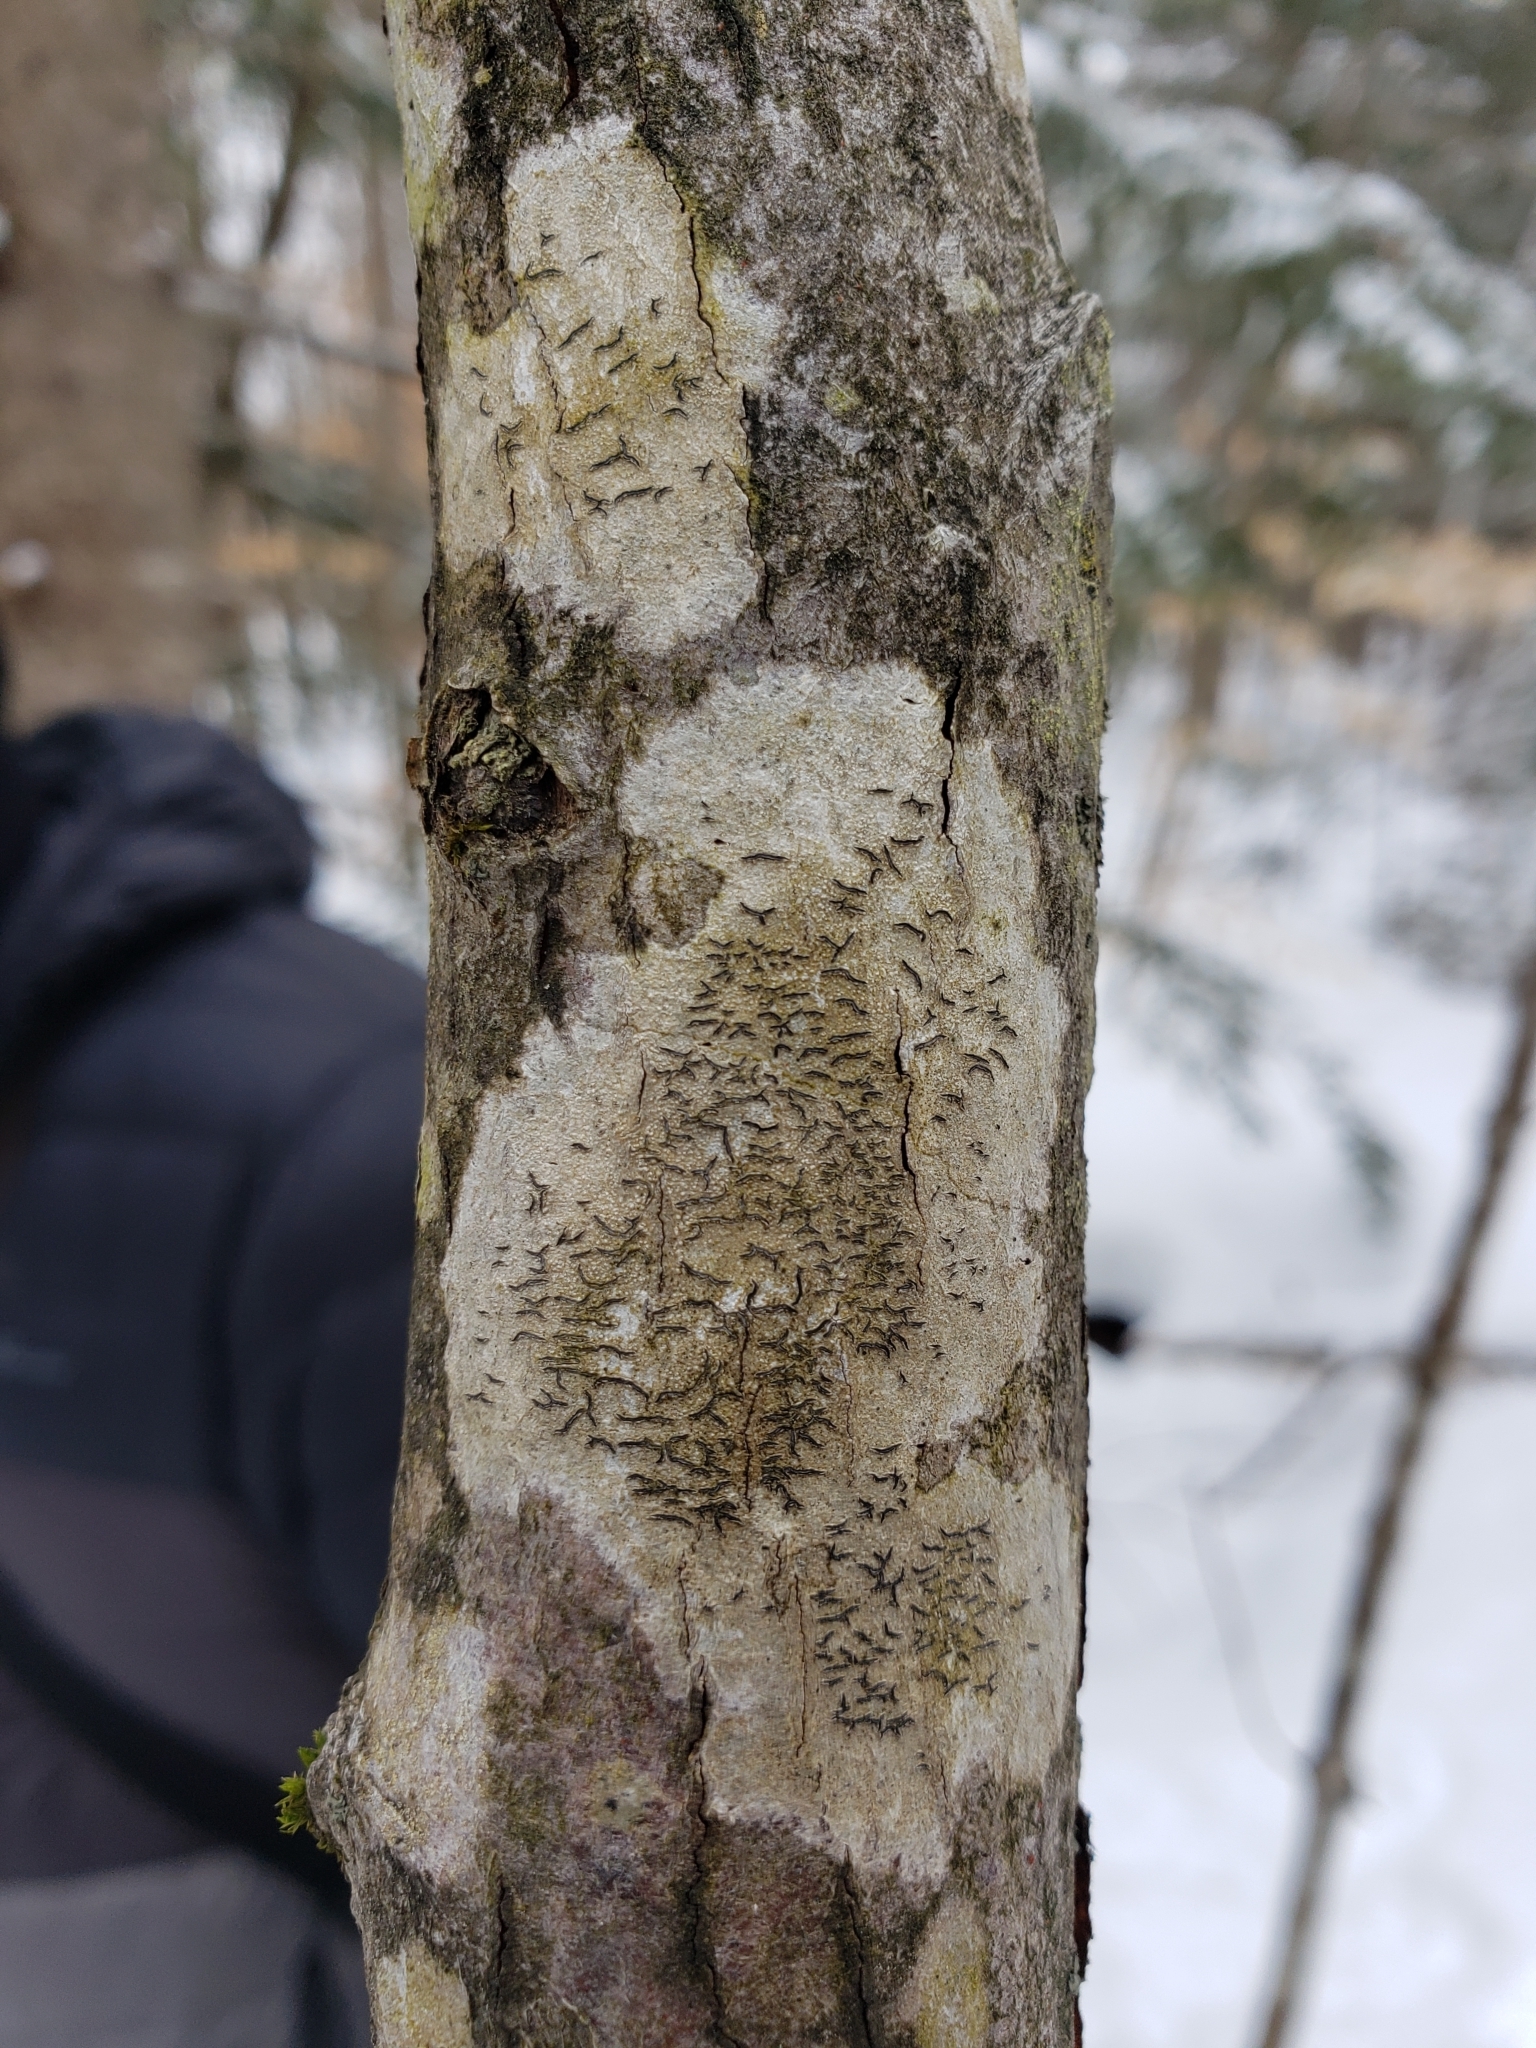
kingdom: Fungi
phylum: Ascomycota
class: Lecanoromycetes
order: Ostropales
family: Graphidaceae
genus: Graphis
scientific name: Graphis scripta
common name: Script lichen
